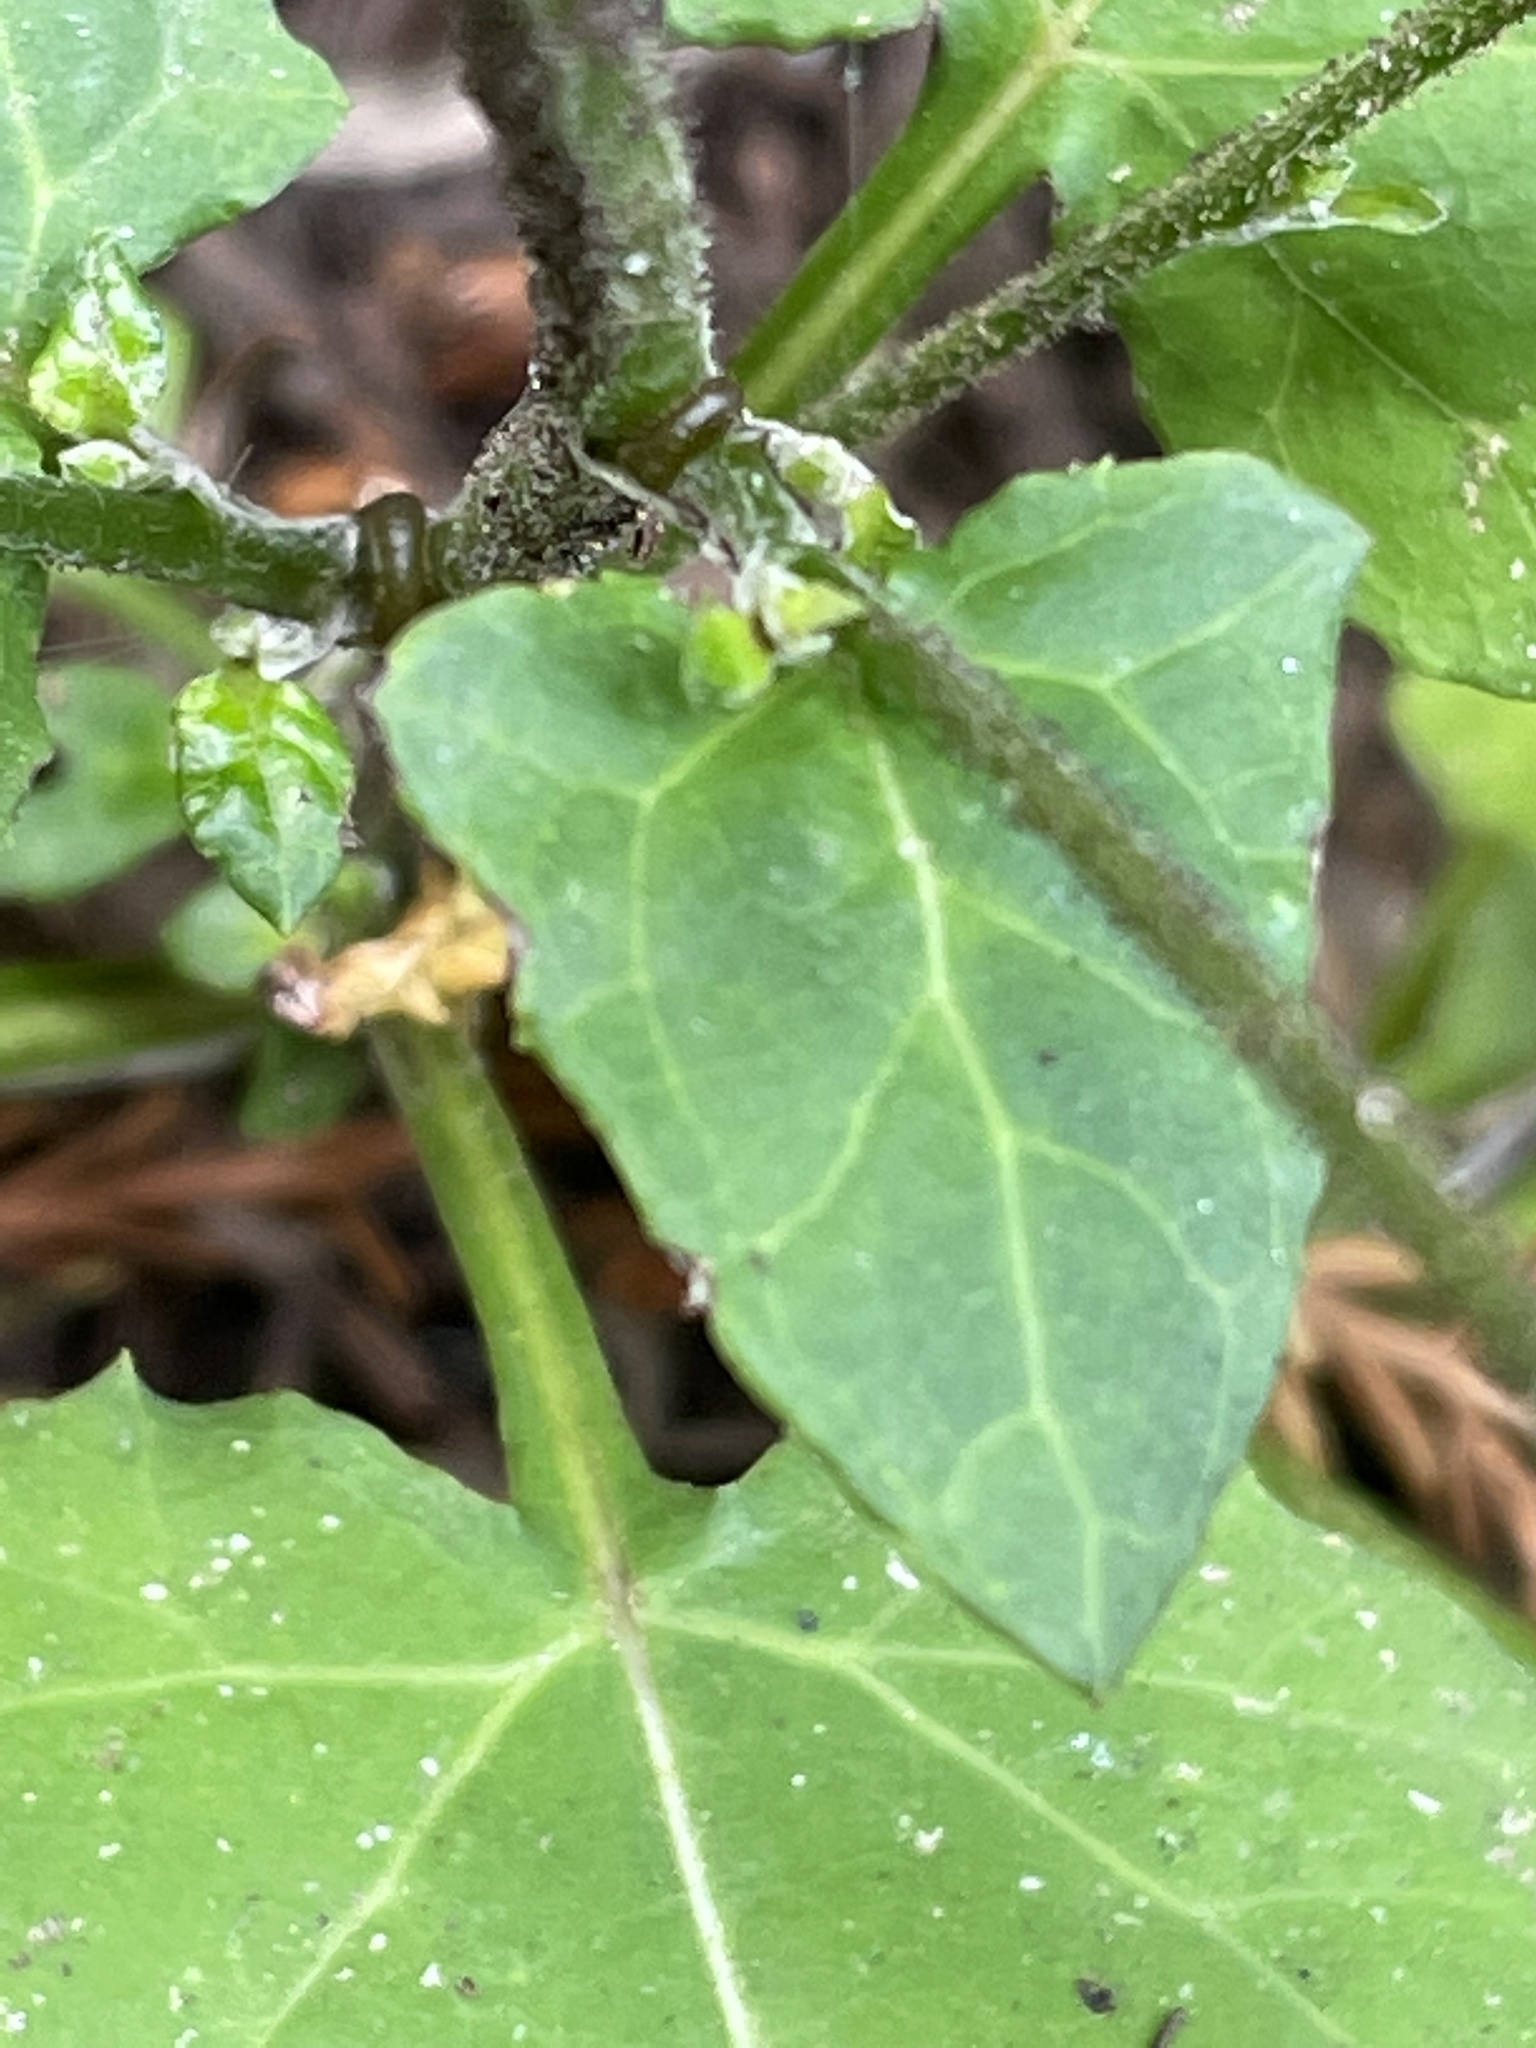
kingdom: Plantae
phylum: Tracheophyta
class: Magnoliopsida
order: Asterales
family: Asteraceae
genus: Adenocaulon
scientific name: Adenocaulon bicolor
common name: Trailplant
